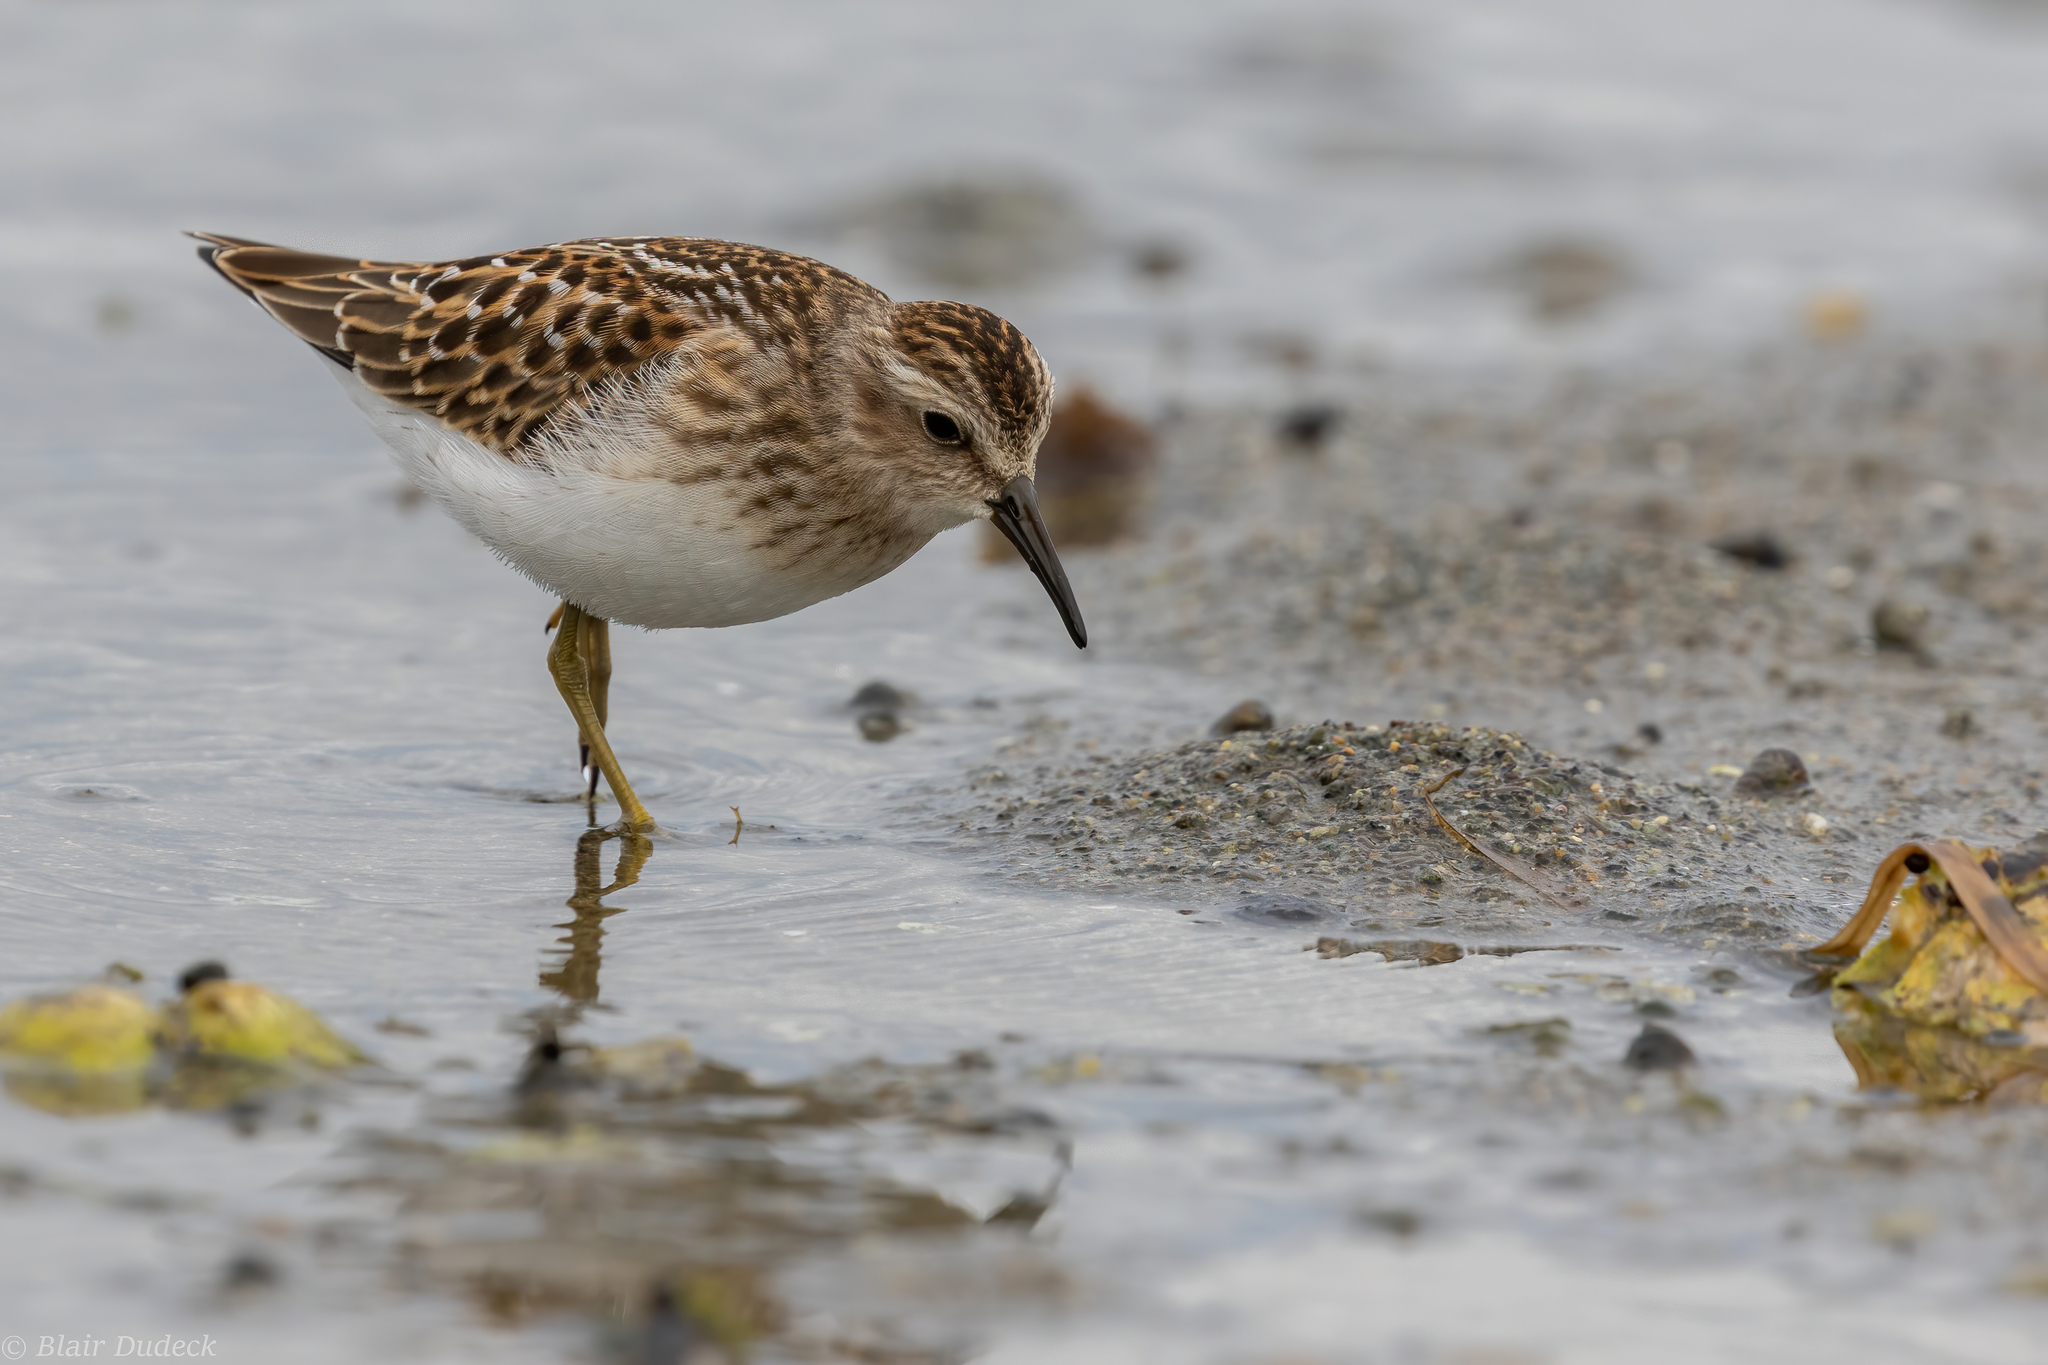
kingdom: Animalia
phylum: Chordata
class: Aves
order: Charadriiformes
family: Scolopacidae
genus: Calidris
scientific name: Calidris minutilla
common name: Least sandpiper
